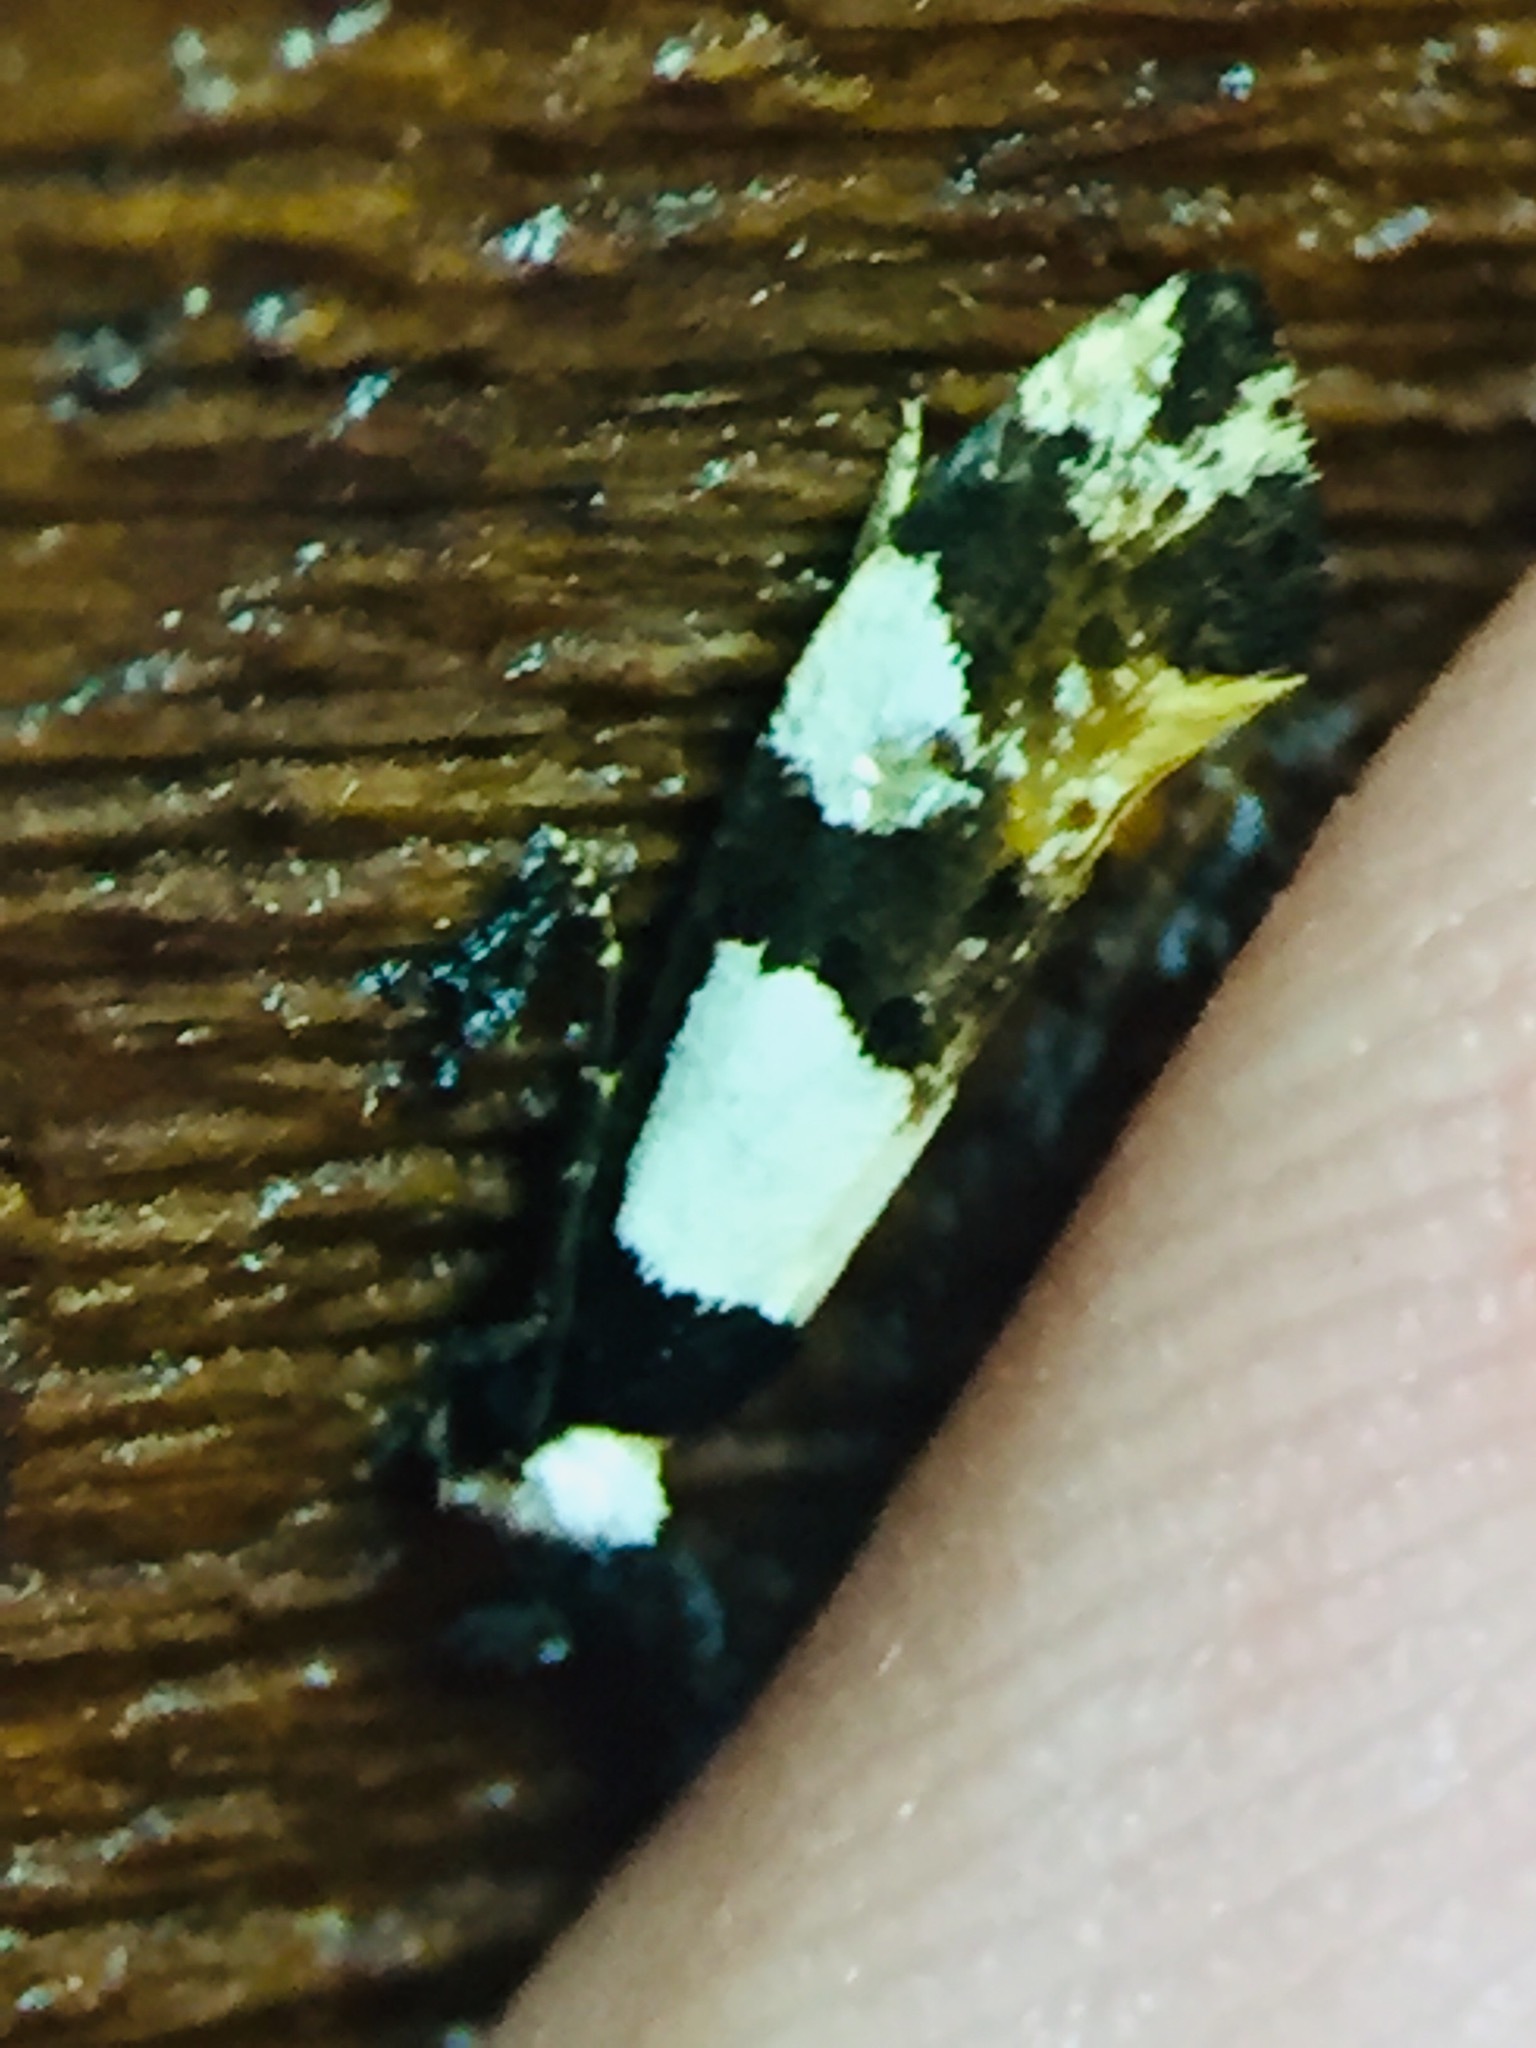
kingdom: Animalia
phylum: Arthropoda
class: Insecta
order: Lepidoptera
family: Tineidae
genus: Monopis
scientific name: Monopis icterogastra
